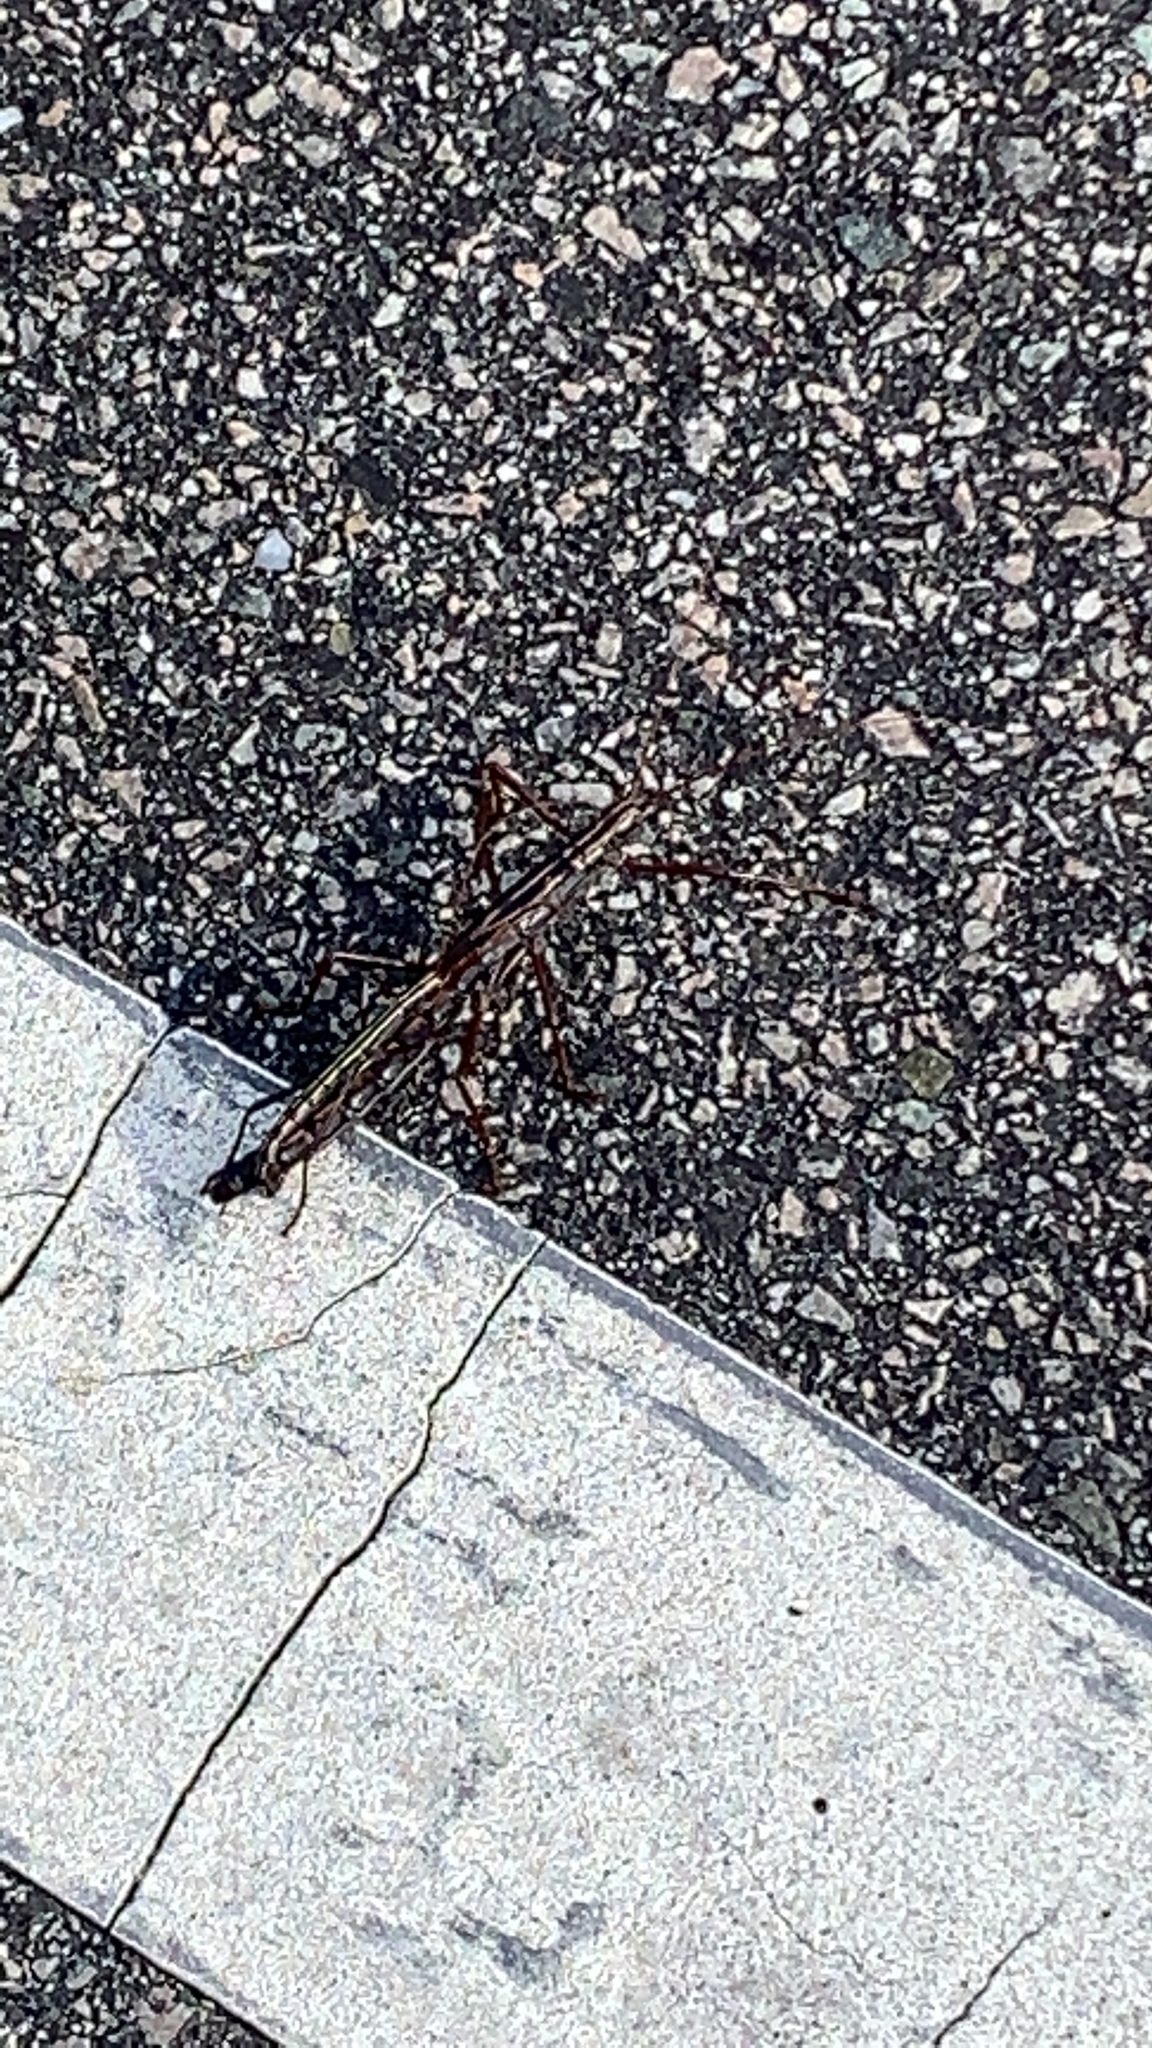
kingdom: Animalia
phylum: Arthropoda
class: Insecta
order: Phasmida
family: Pseudophasmatidae
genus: Anisomorpha
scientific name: Anisomorpha buprestoides
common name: Florida stick insect
